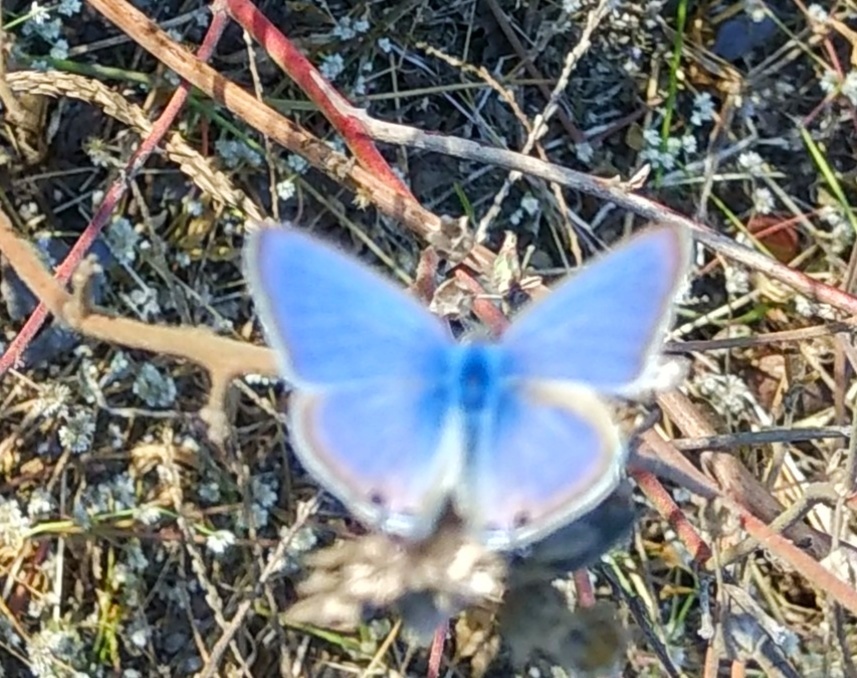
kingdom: Animalia
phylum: Arthropoda
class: Insecta
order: Lepidoptera
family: Lycaenidae
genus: Catochrysops
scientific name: Catochrysops strabo
